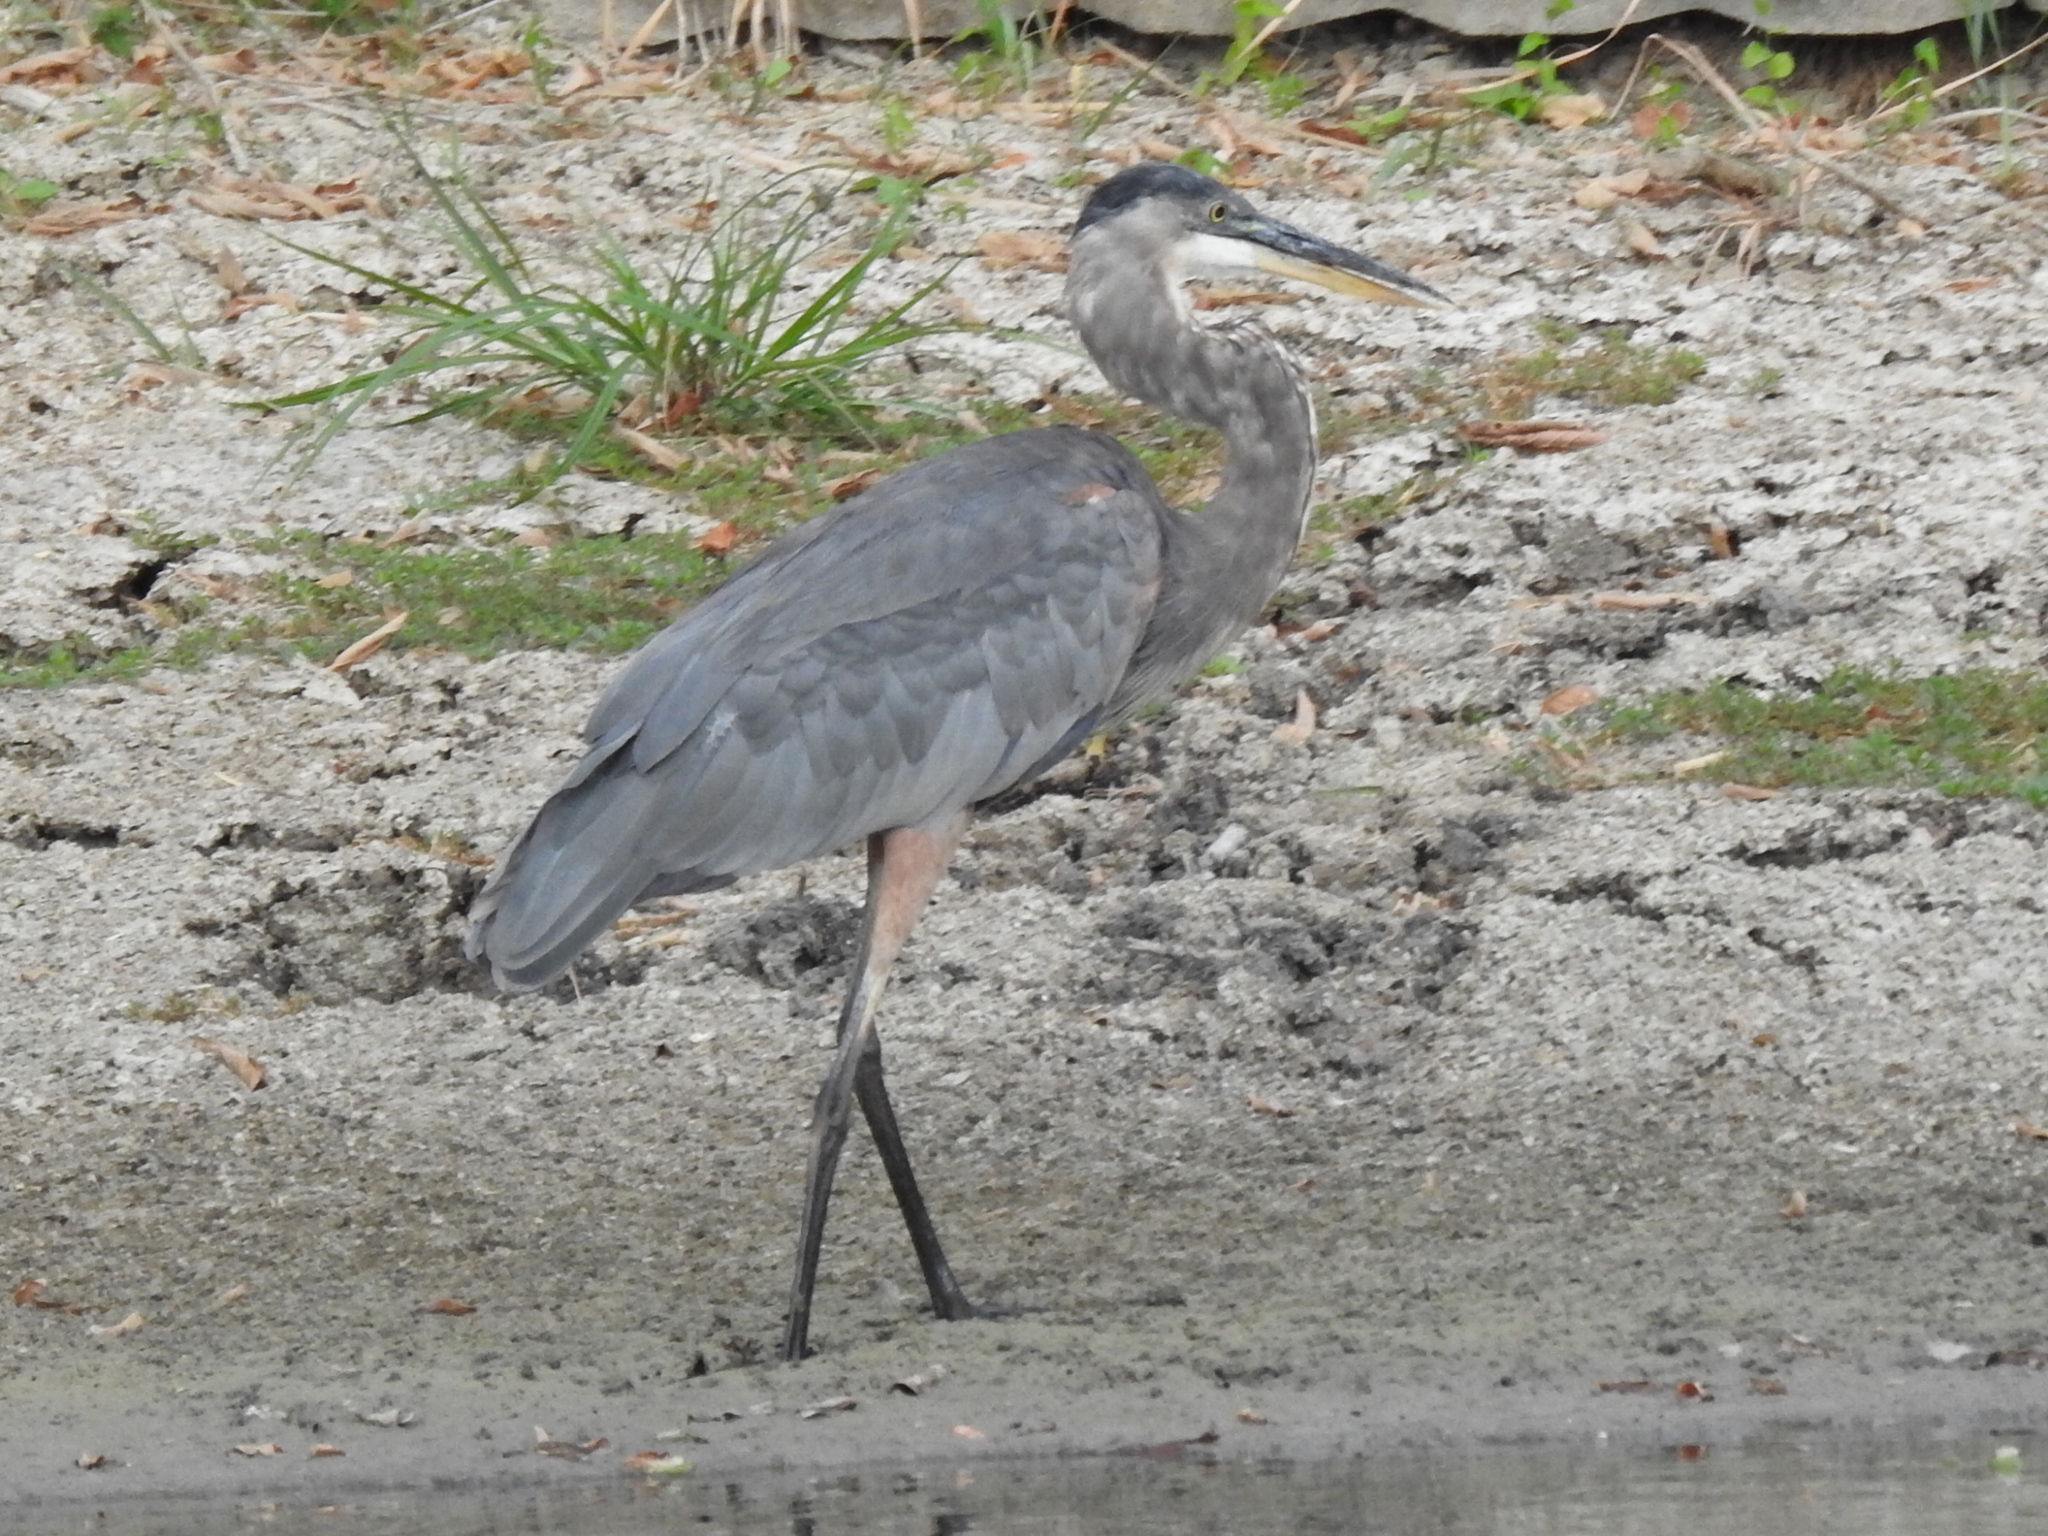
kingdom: Animalia
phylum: Chordata
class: Aves
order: Pelecaniformes
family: Ardeidae
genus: Ardea
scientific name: Ardea herodias
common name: Great blue heron
